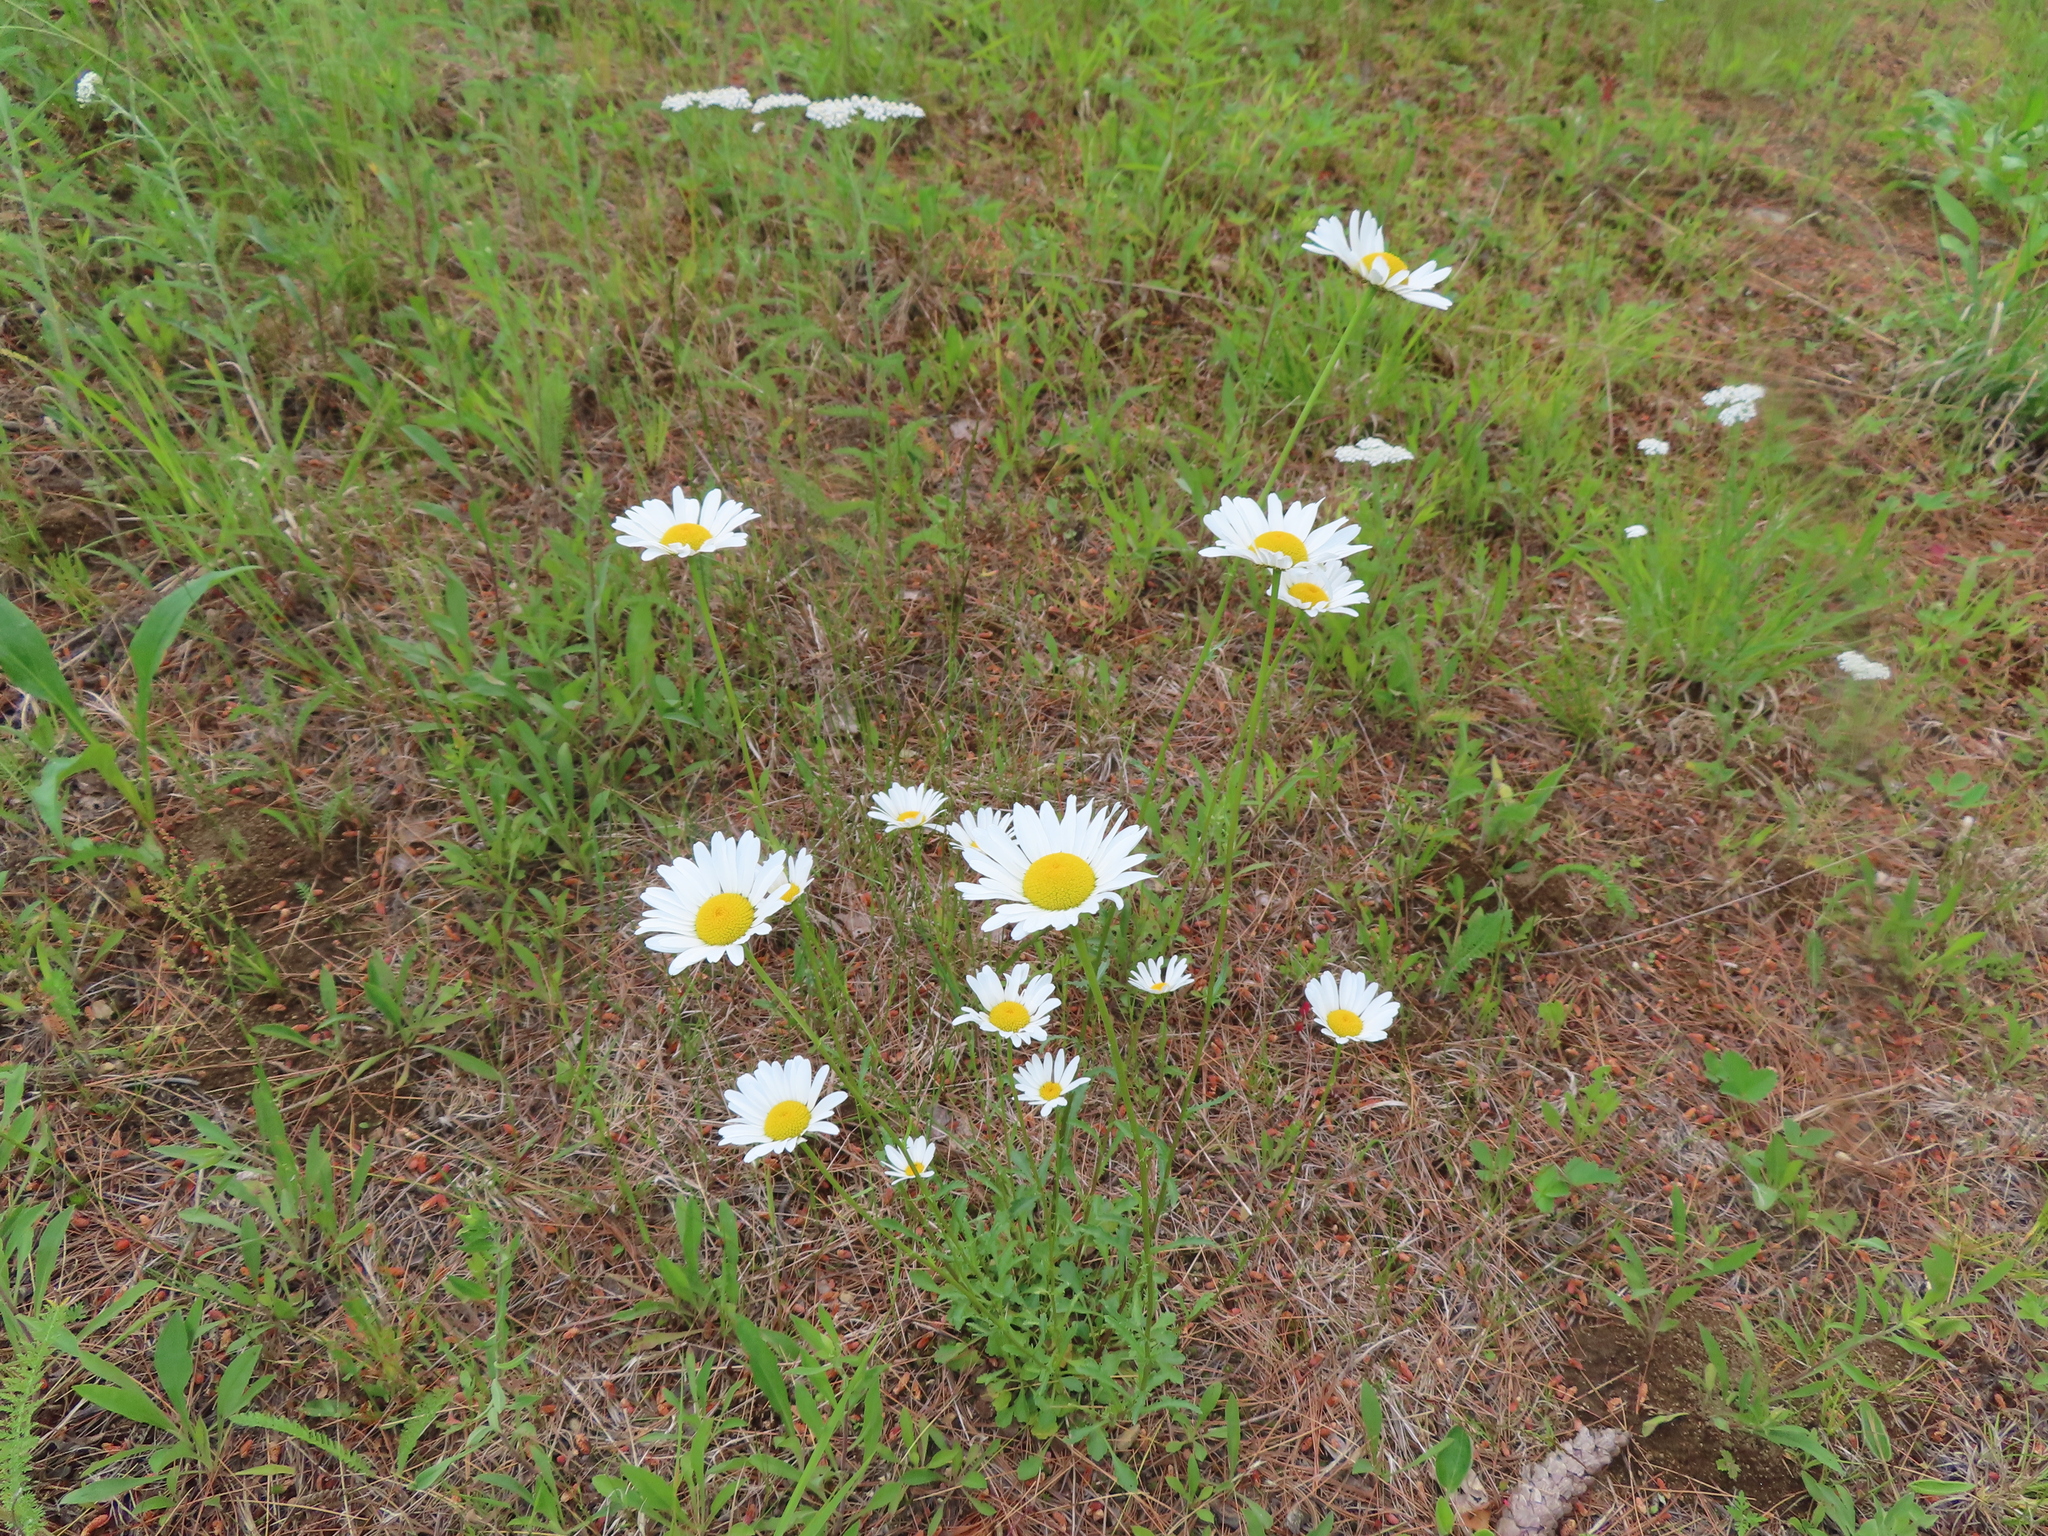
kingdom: Plantae
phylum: Tracheophyta
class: Magnoliopsida
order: Asterales
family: Asteraceae
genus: Leucanthemum
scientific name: Leucanthemum vulgare
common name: Oxeye daisy
